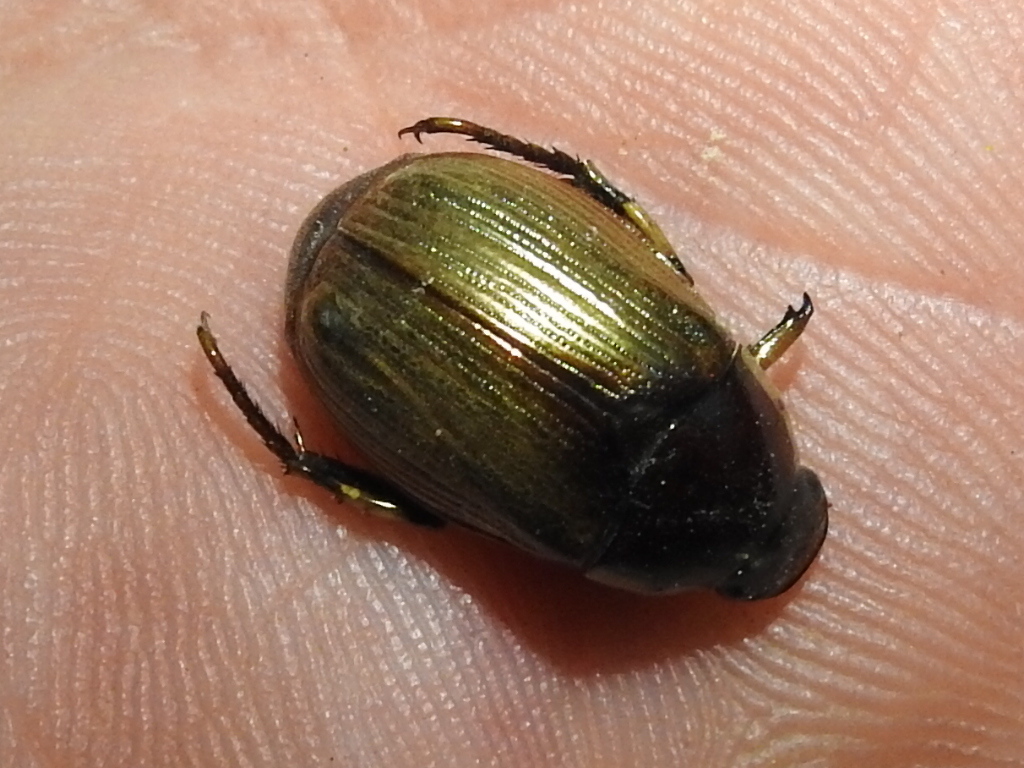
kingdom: Animalia
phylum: Arthropoda
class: Insecta
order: Coleoptera
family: Scarabaeidae
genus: Callistethus
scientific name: Callistethus marginatus
